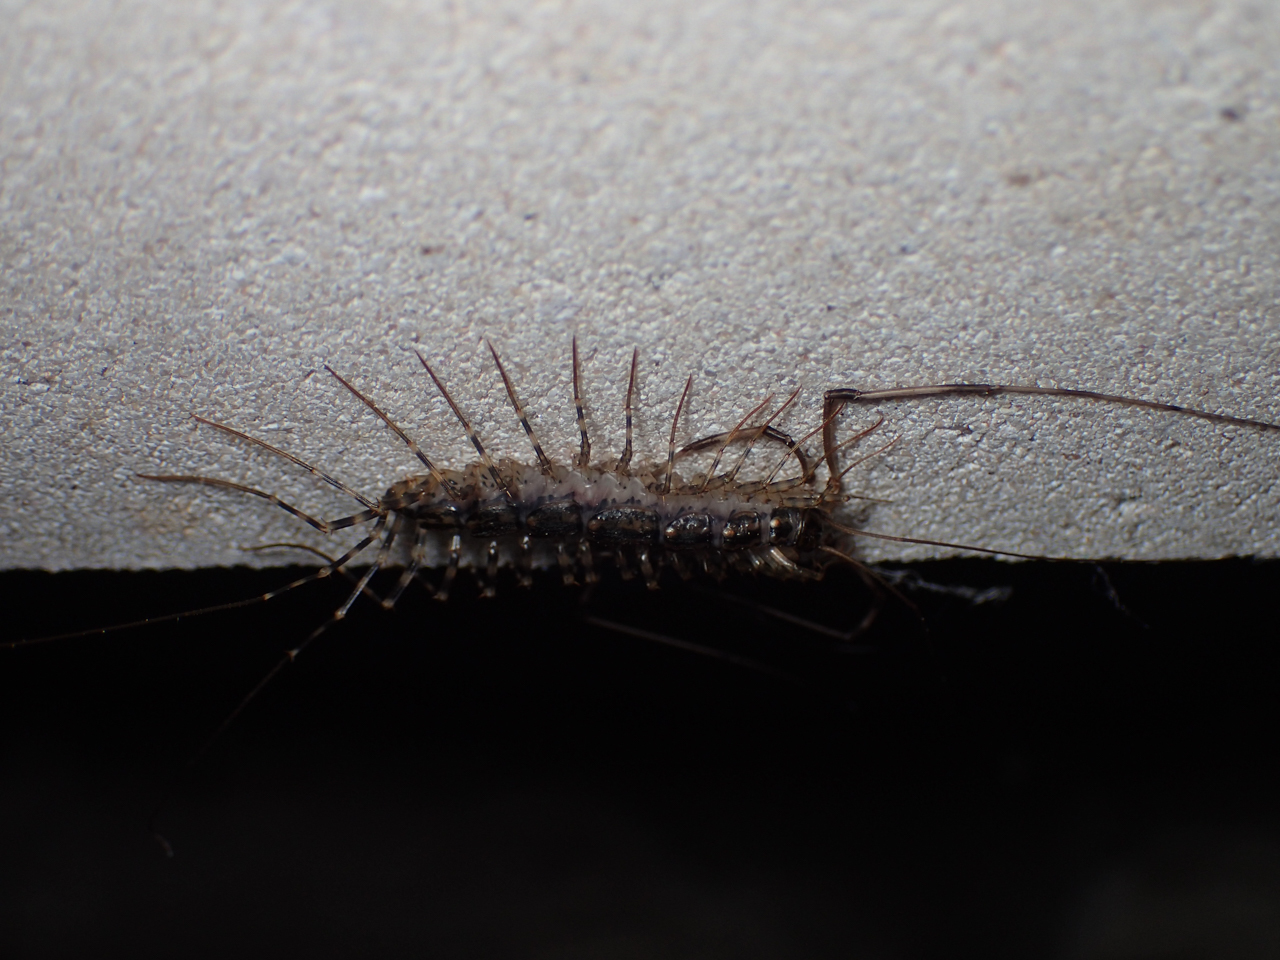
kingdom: Animalia
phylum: Arthropoda
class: Chilopoda
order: Scutigeromorpha
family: Scutigeridae
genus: Scutigera
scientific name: Scutigera coleoptrata
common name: House centipede
